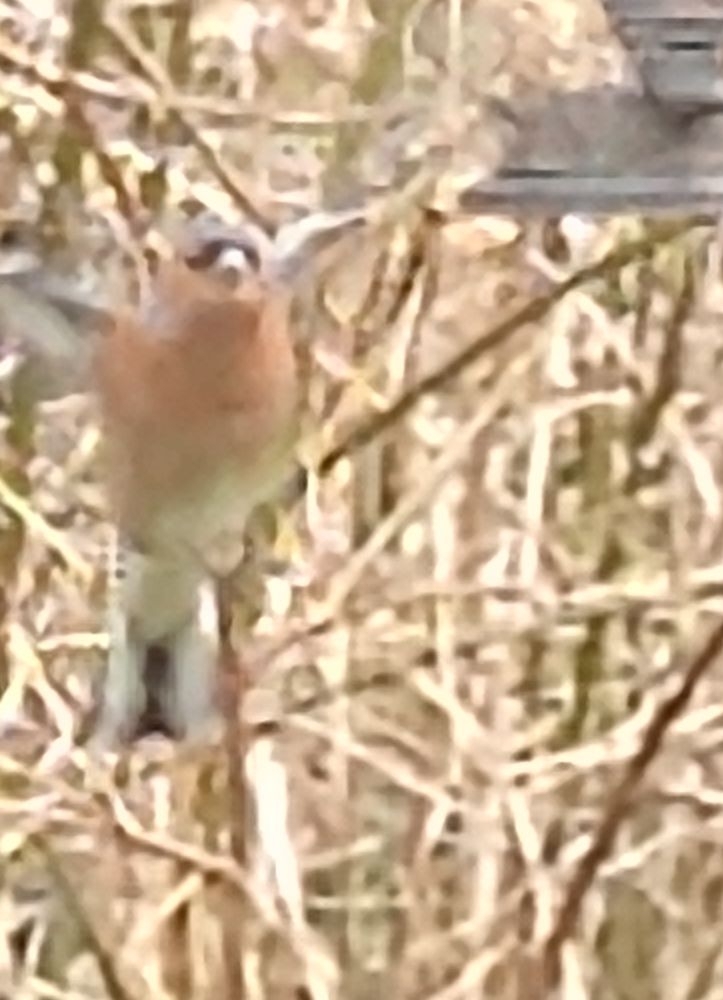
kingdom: Animalia
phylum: Chordata
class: Aves
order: Passeriformes
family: Fringillidae
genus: Fringilla
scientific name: Fringilla coelebs
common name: Common chaffinch
